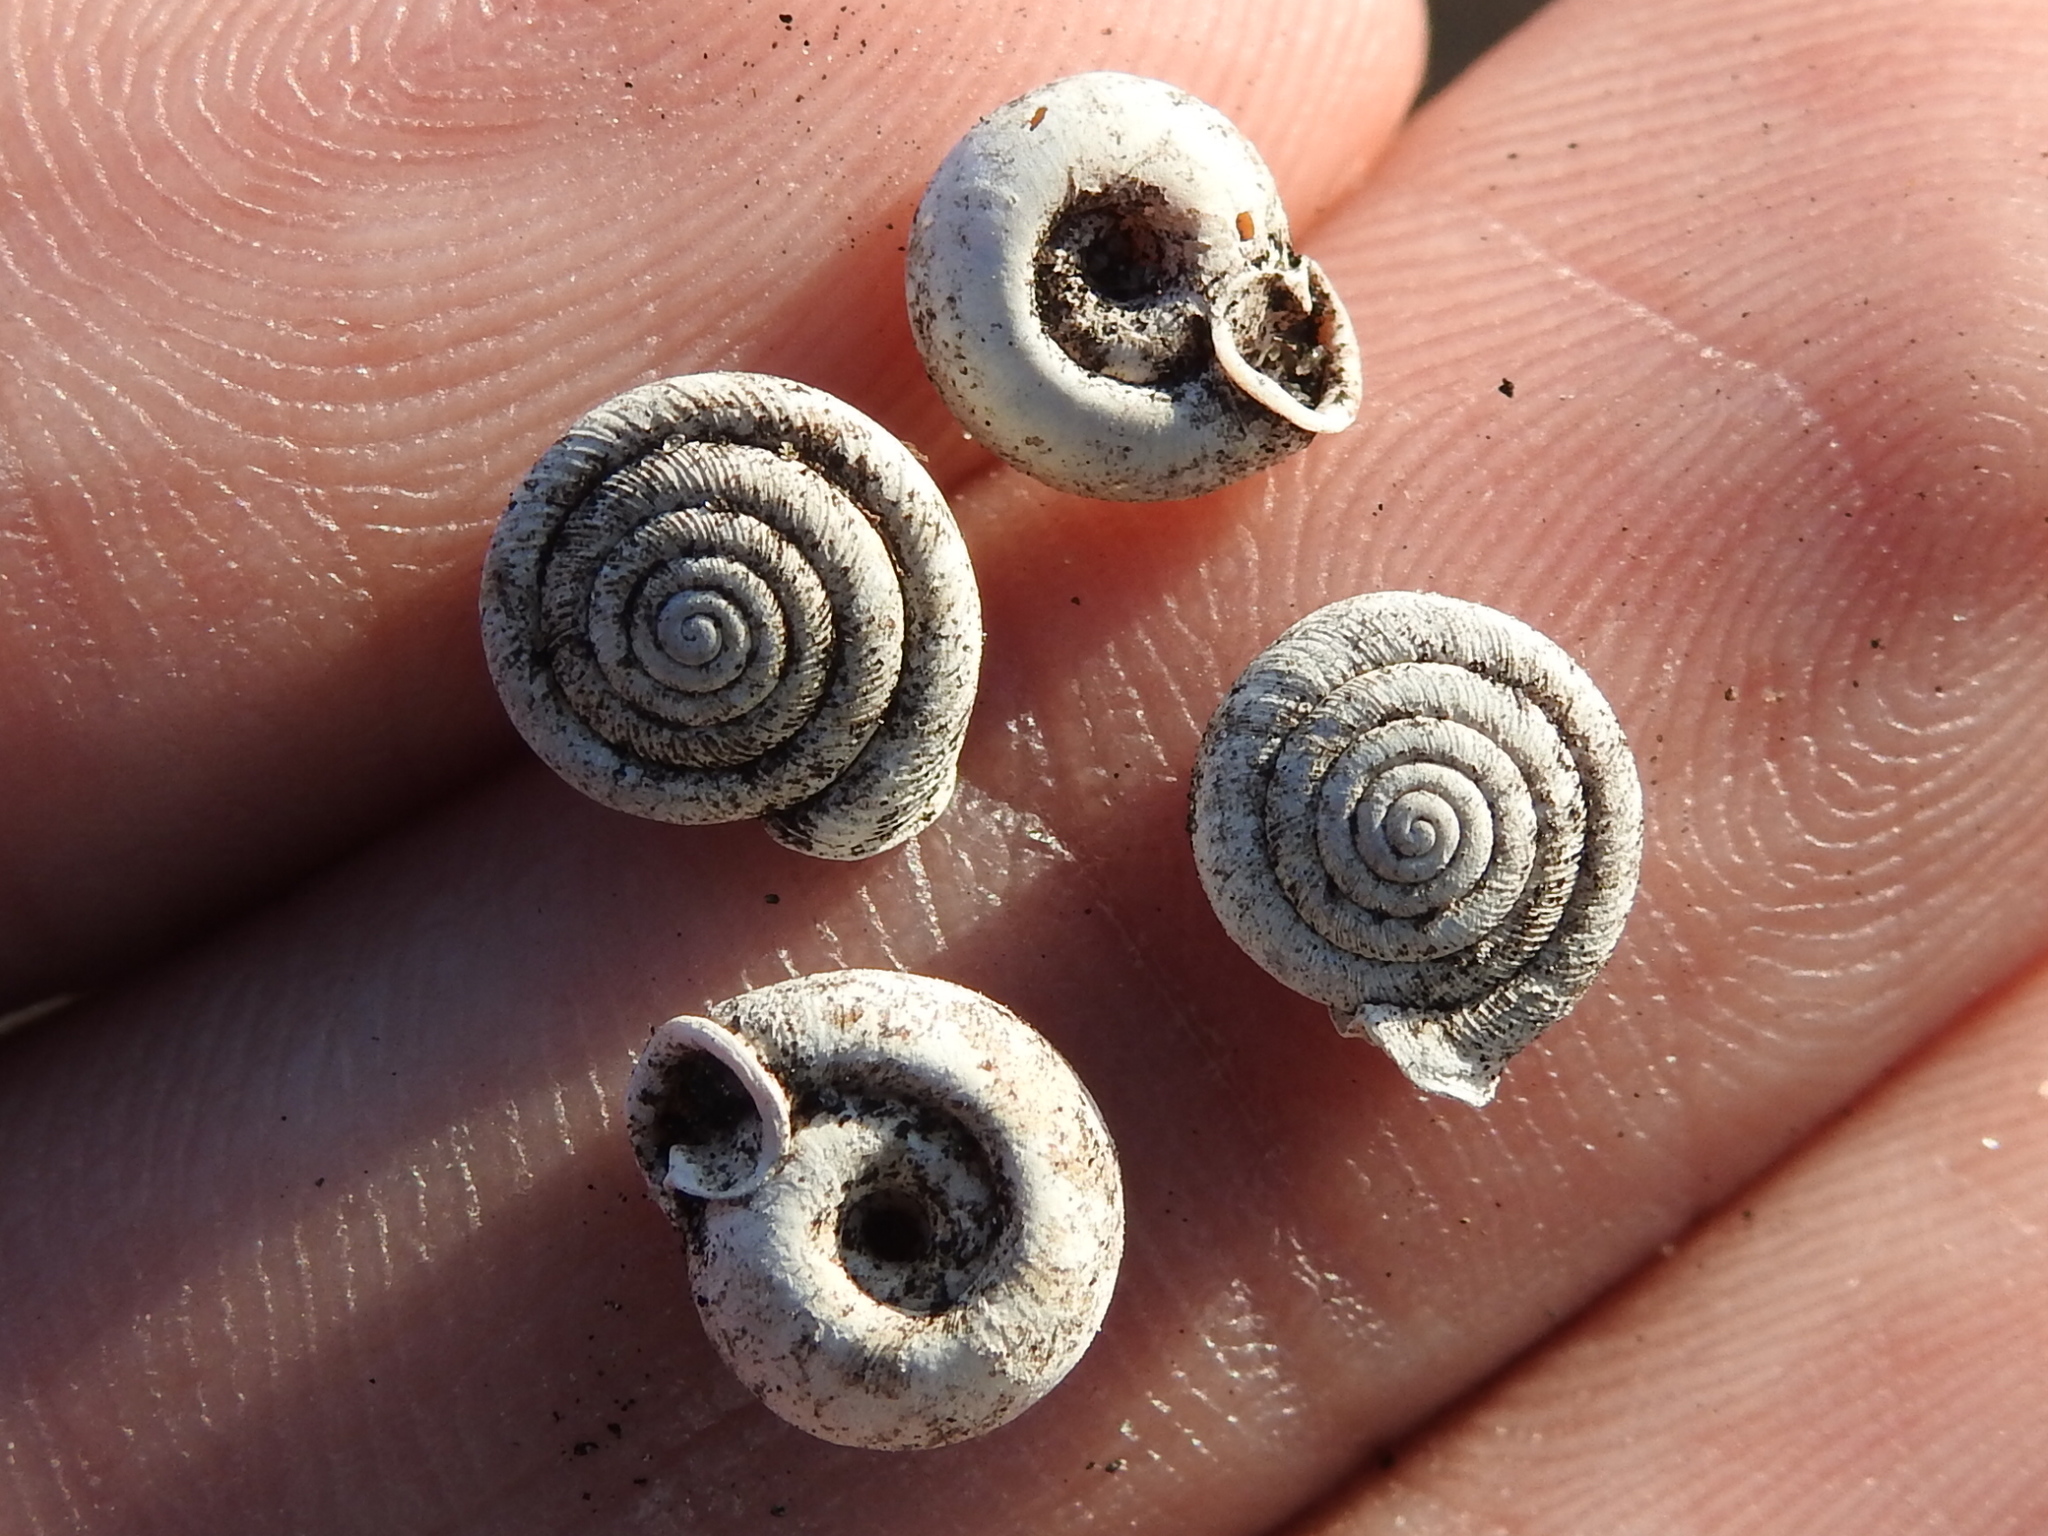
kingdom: Animalia
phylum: Mollusca
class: Gastropoda
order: Stylommatophora
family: Polygyridae
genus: Polygyra
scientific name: Polygyra cereolus
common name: Southern flatcone snail
